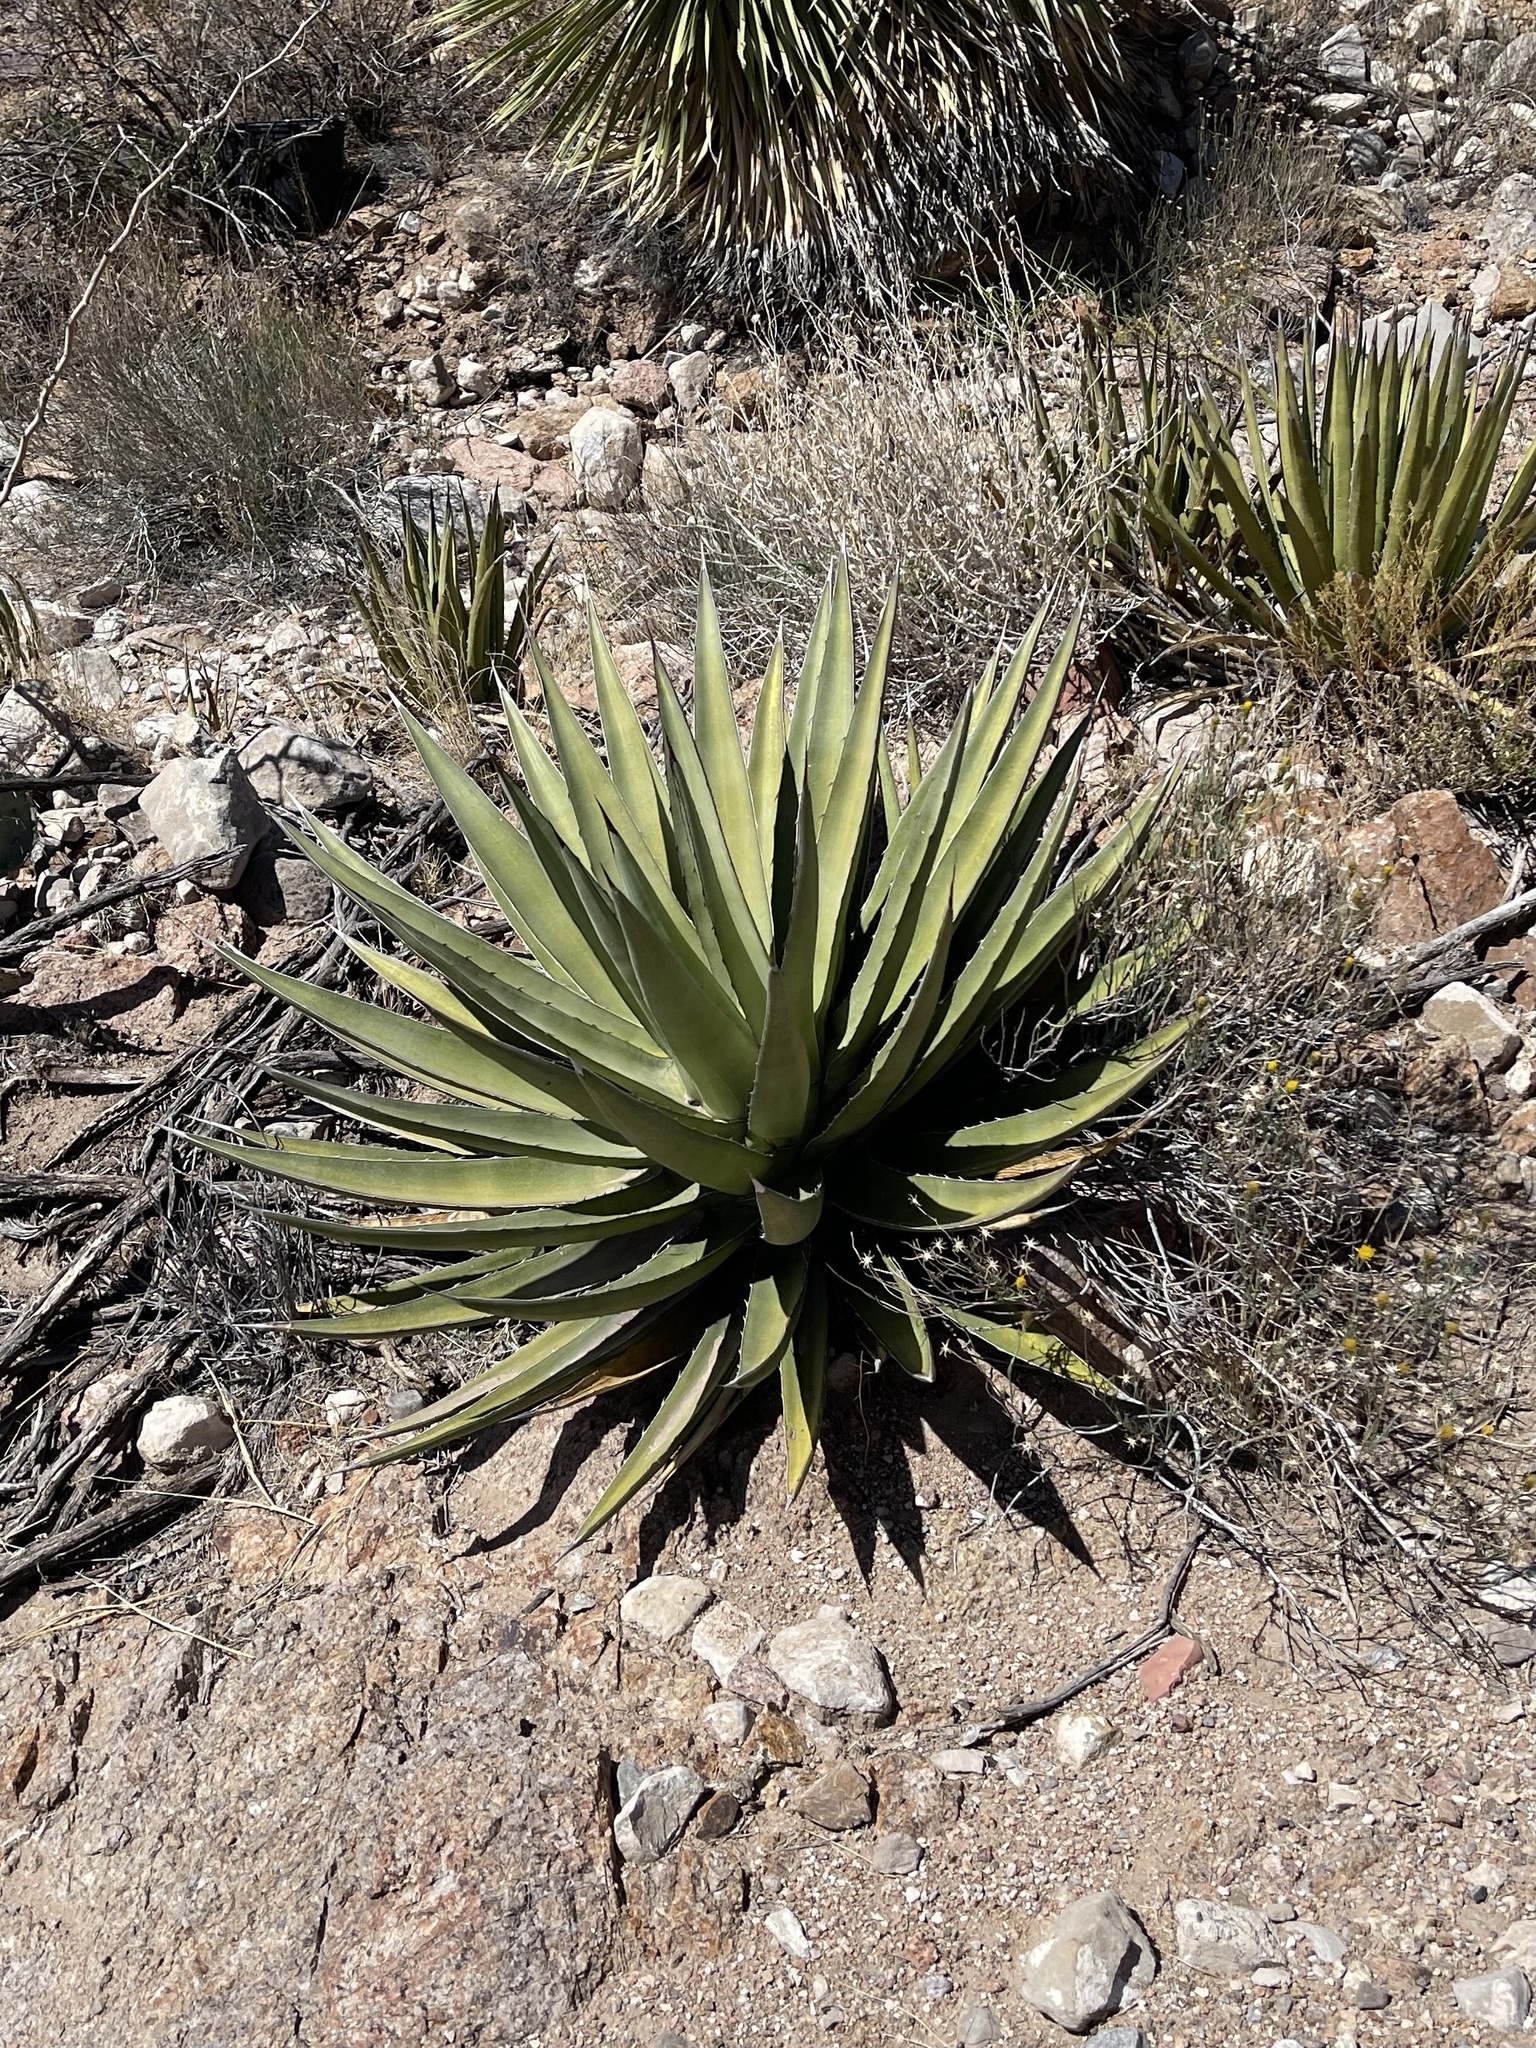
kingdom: Plantae
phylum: Tracheophyta
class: Liliopsida
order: Asparagales
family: Asparagaceae
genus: Agave
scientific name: Agave lechuguilla
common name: Lecheguilla agave
